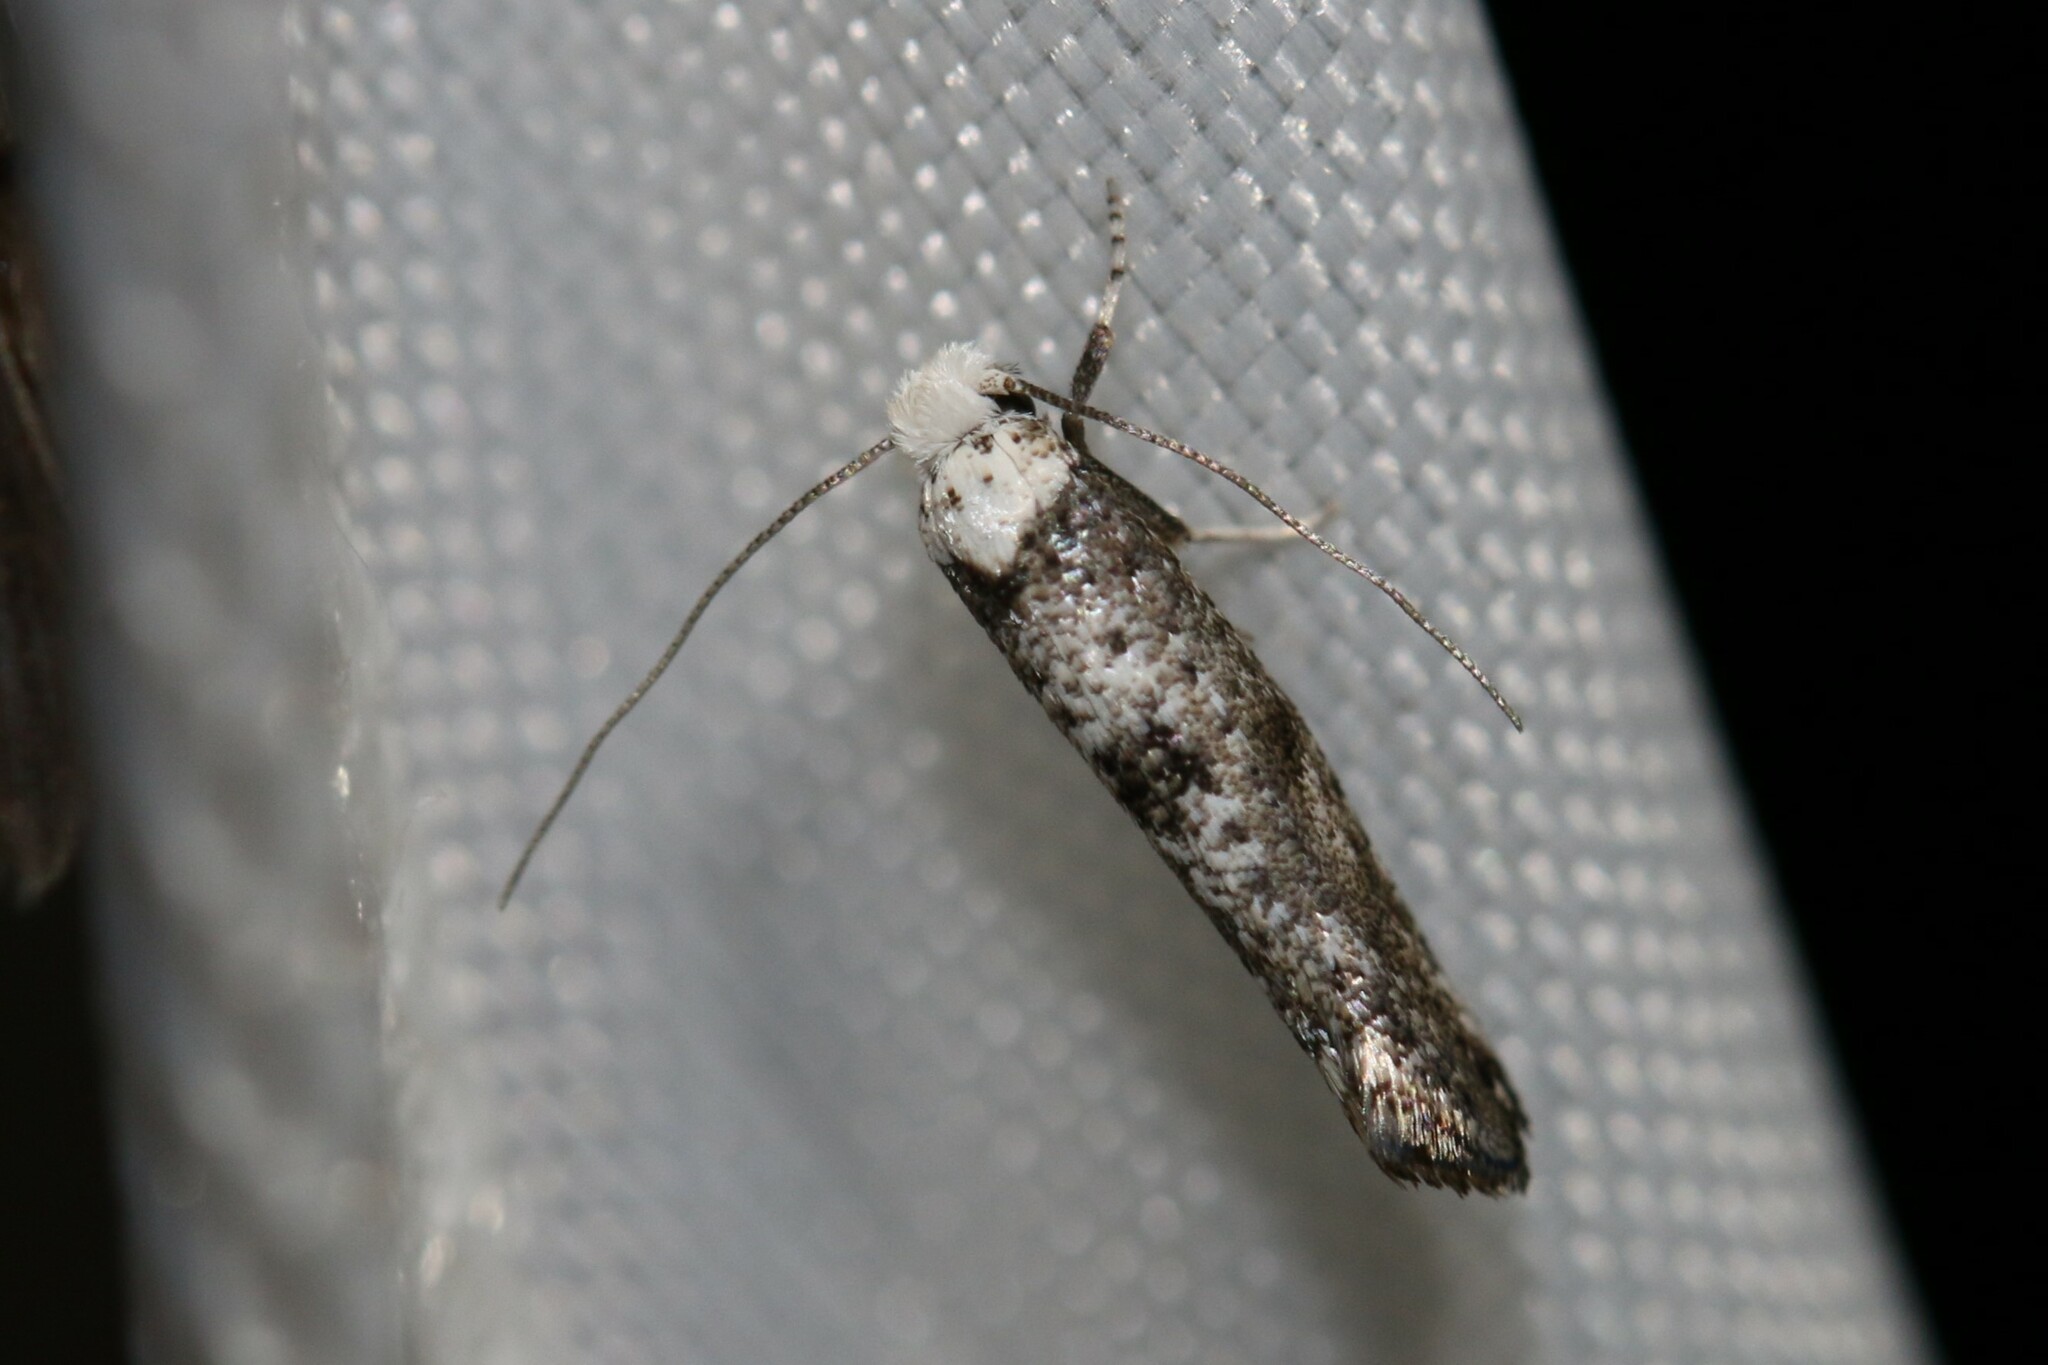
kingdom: Animalia
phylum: Arthropoda
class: Insecta
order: Lepidoptera
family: Yponomeutidae
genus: Paraswammerdamia
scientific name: Paraswammerdamia albicapitella
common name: White-headed ermel
